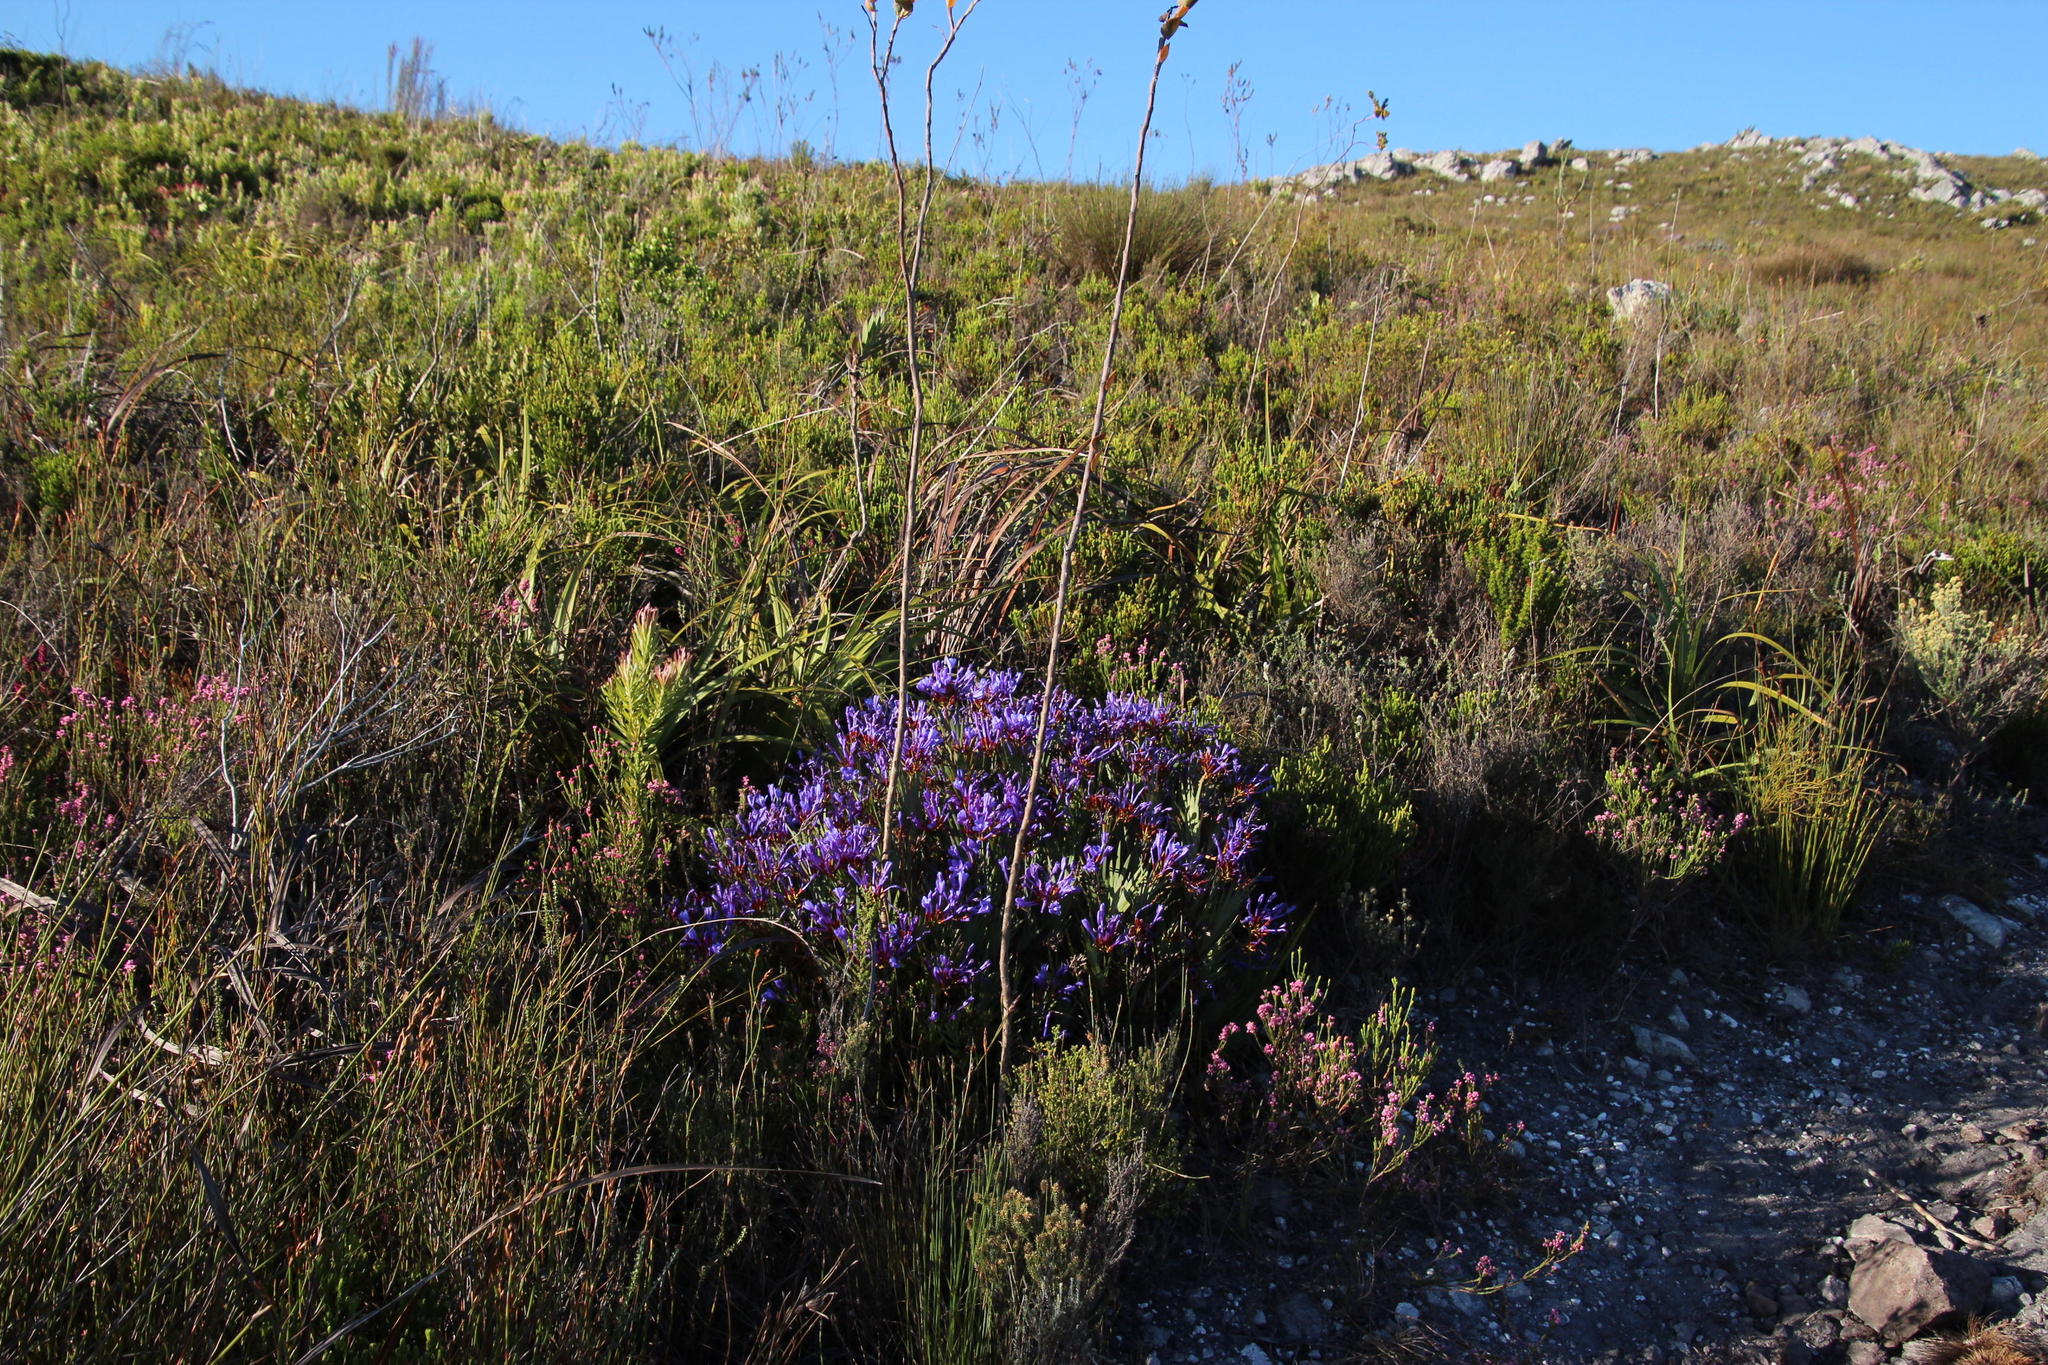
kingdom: Plantae
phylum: Tracheophyta
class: Liliopsida
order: Asparagales
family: Iridaceae
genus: Nivenia
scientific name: Nivenia stokoei
